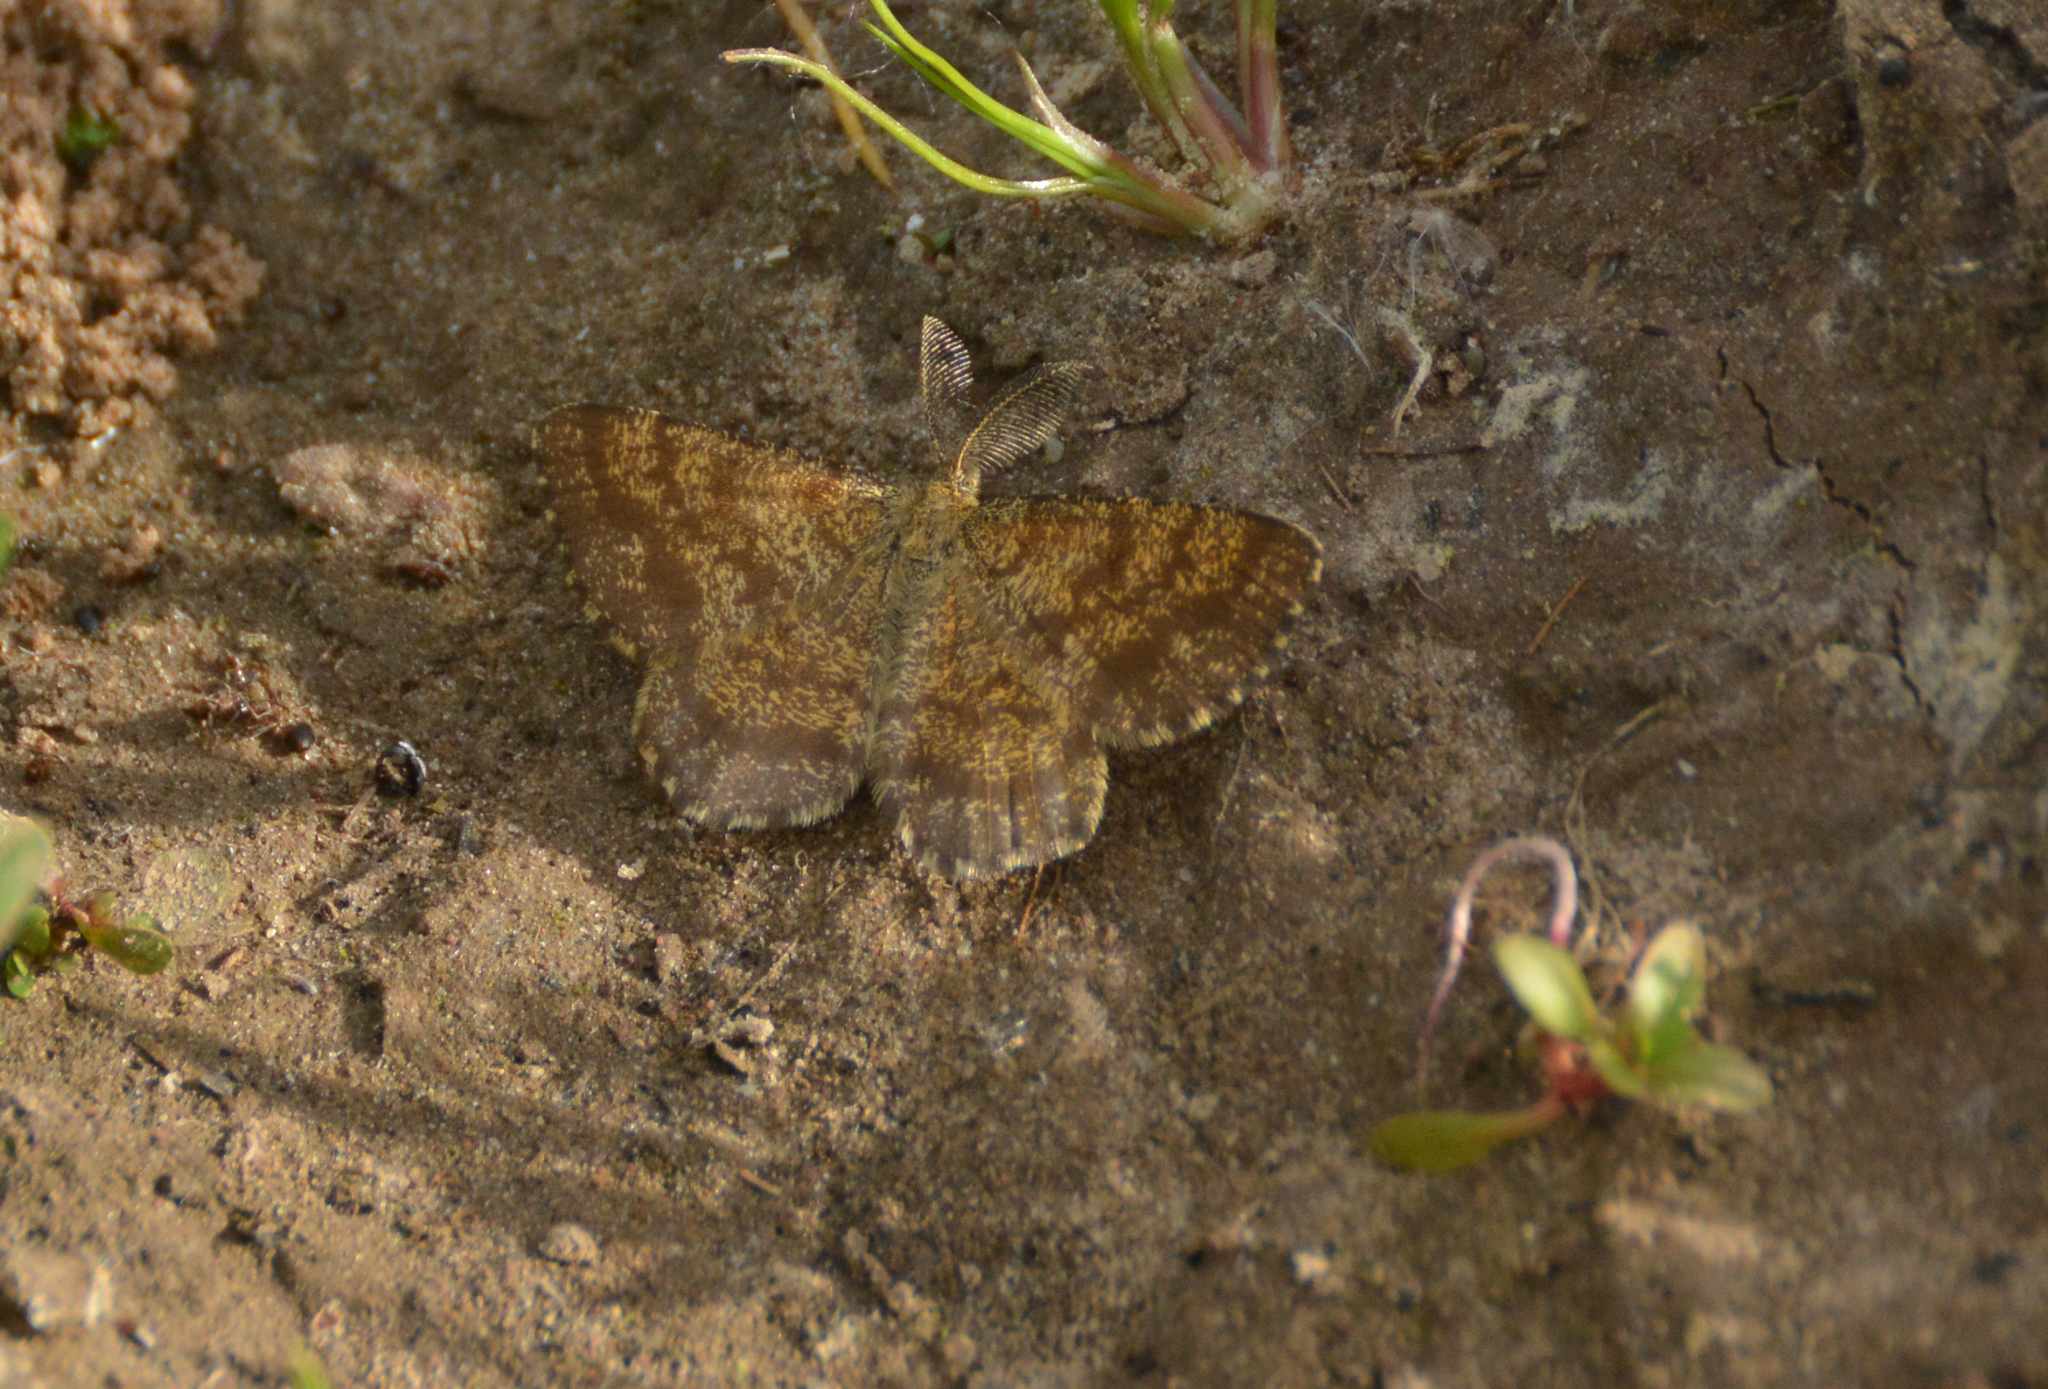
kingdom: Animalia
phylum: Arthropoda
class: Insecta
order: Lepidoptera
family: Geometridae
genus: Ematurga
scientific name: Ematurga atomaria
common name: Common heath
